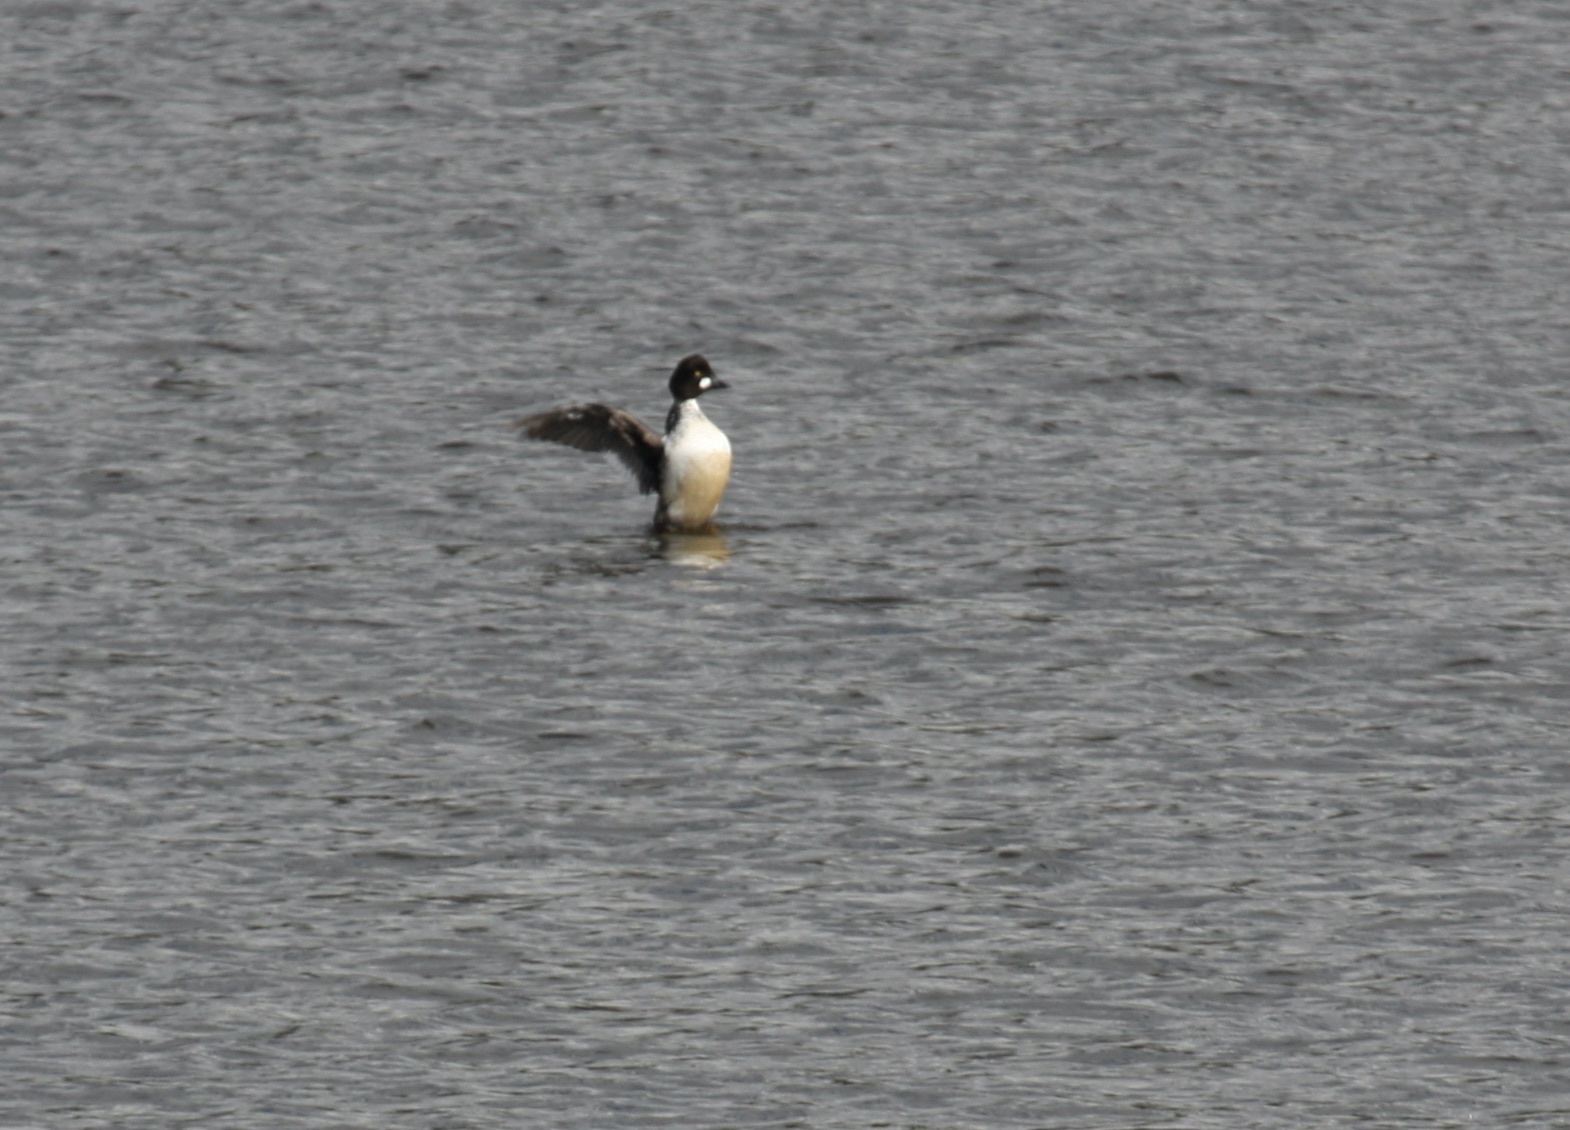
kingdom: Animalia
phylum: Chordata
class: Aves
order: Anseriformes
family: Anatidae
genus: Bucephala
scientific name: Bucephala clangula
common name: Common goldeneye
